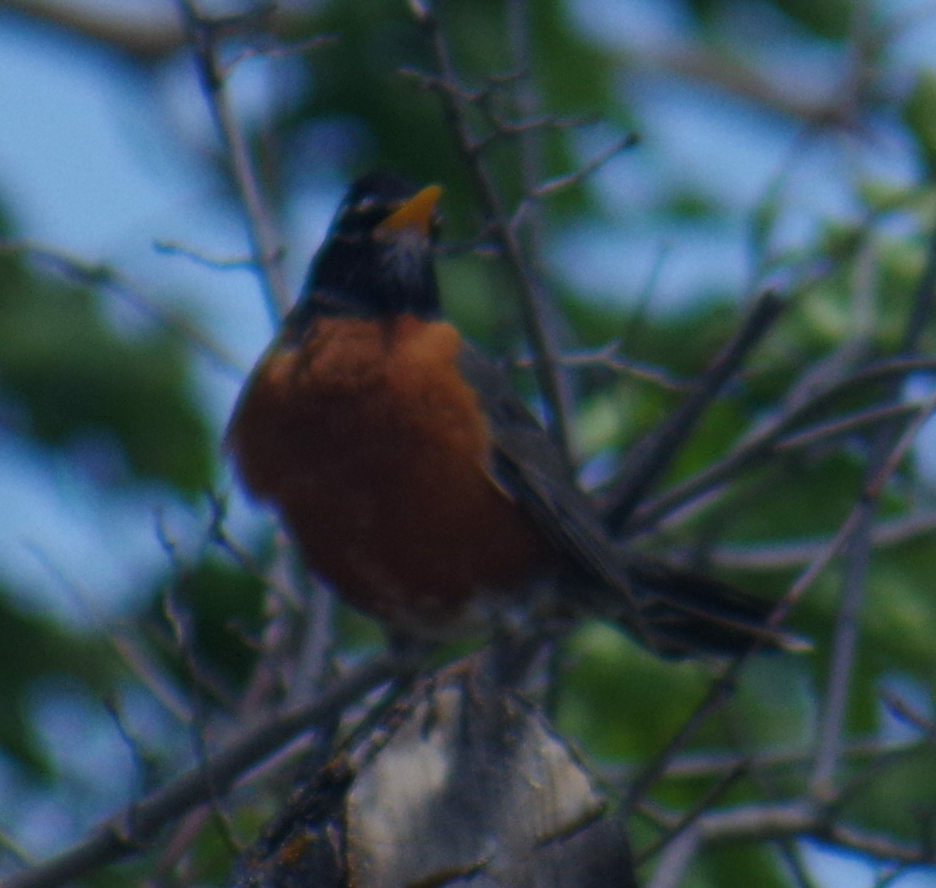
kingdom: Animalia
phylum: Chordata
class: Aves
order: Passeriformes
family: Turdidae
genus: Turdus
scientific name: Turdus migratorius
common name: American robin
